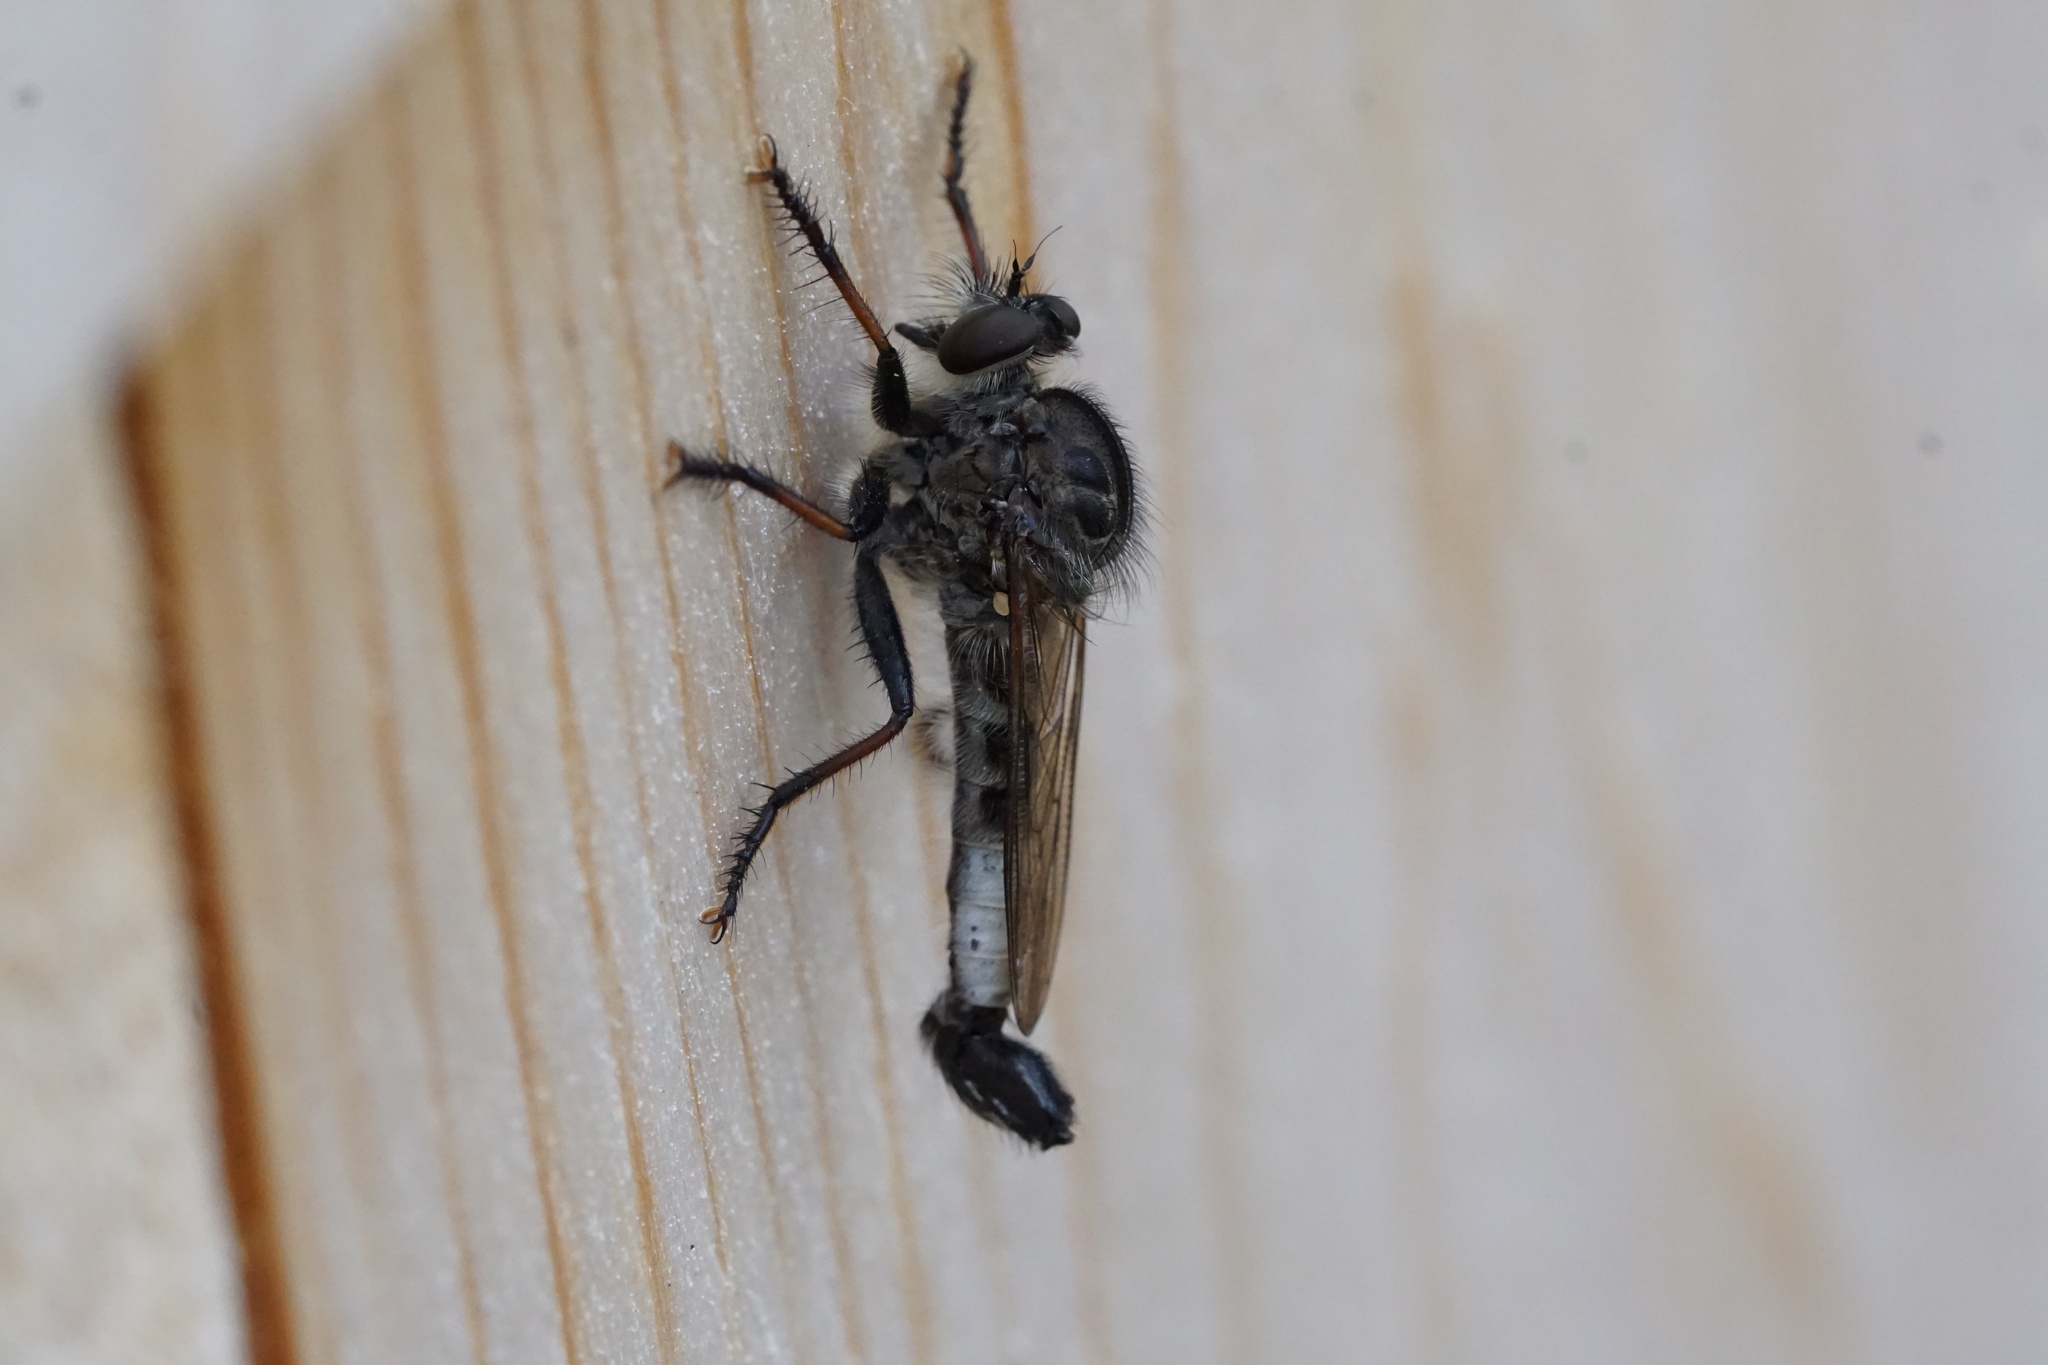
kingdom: Animalia
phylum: Arthropoda
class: Insecta
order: Diptera
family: Asilidae
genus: Efferia
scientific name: Efferia aestuans
